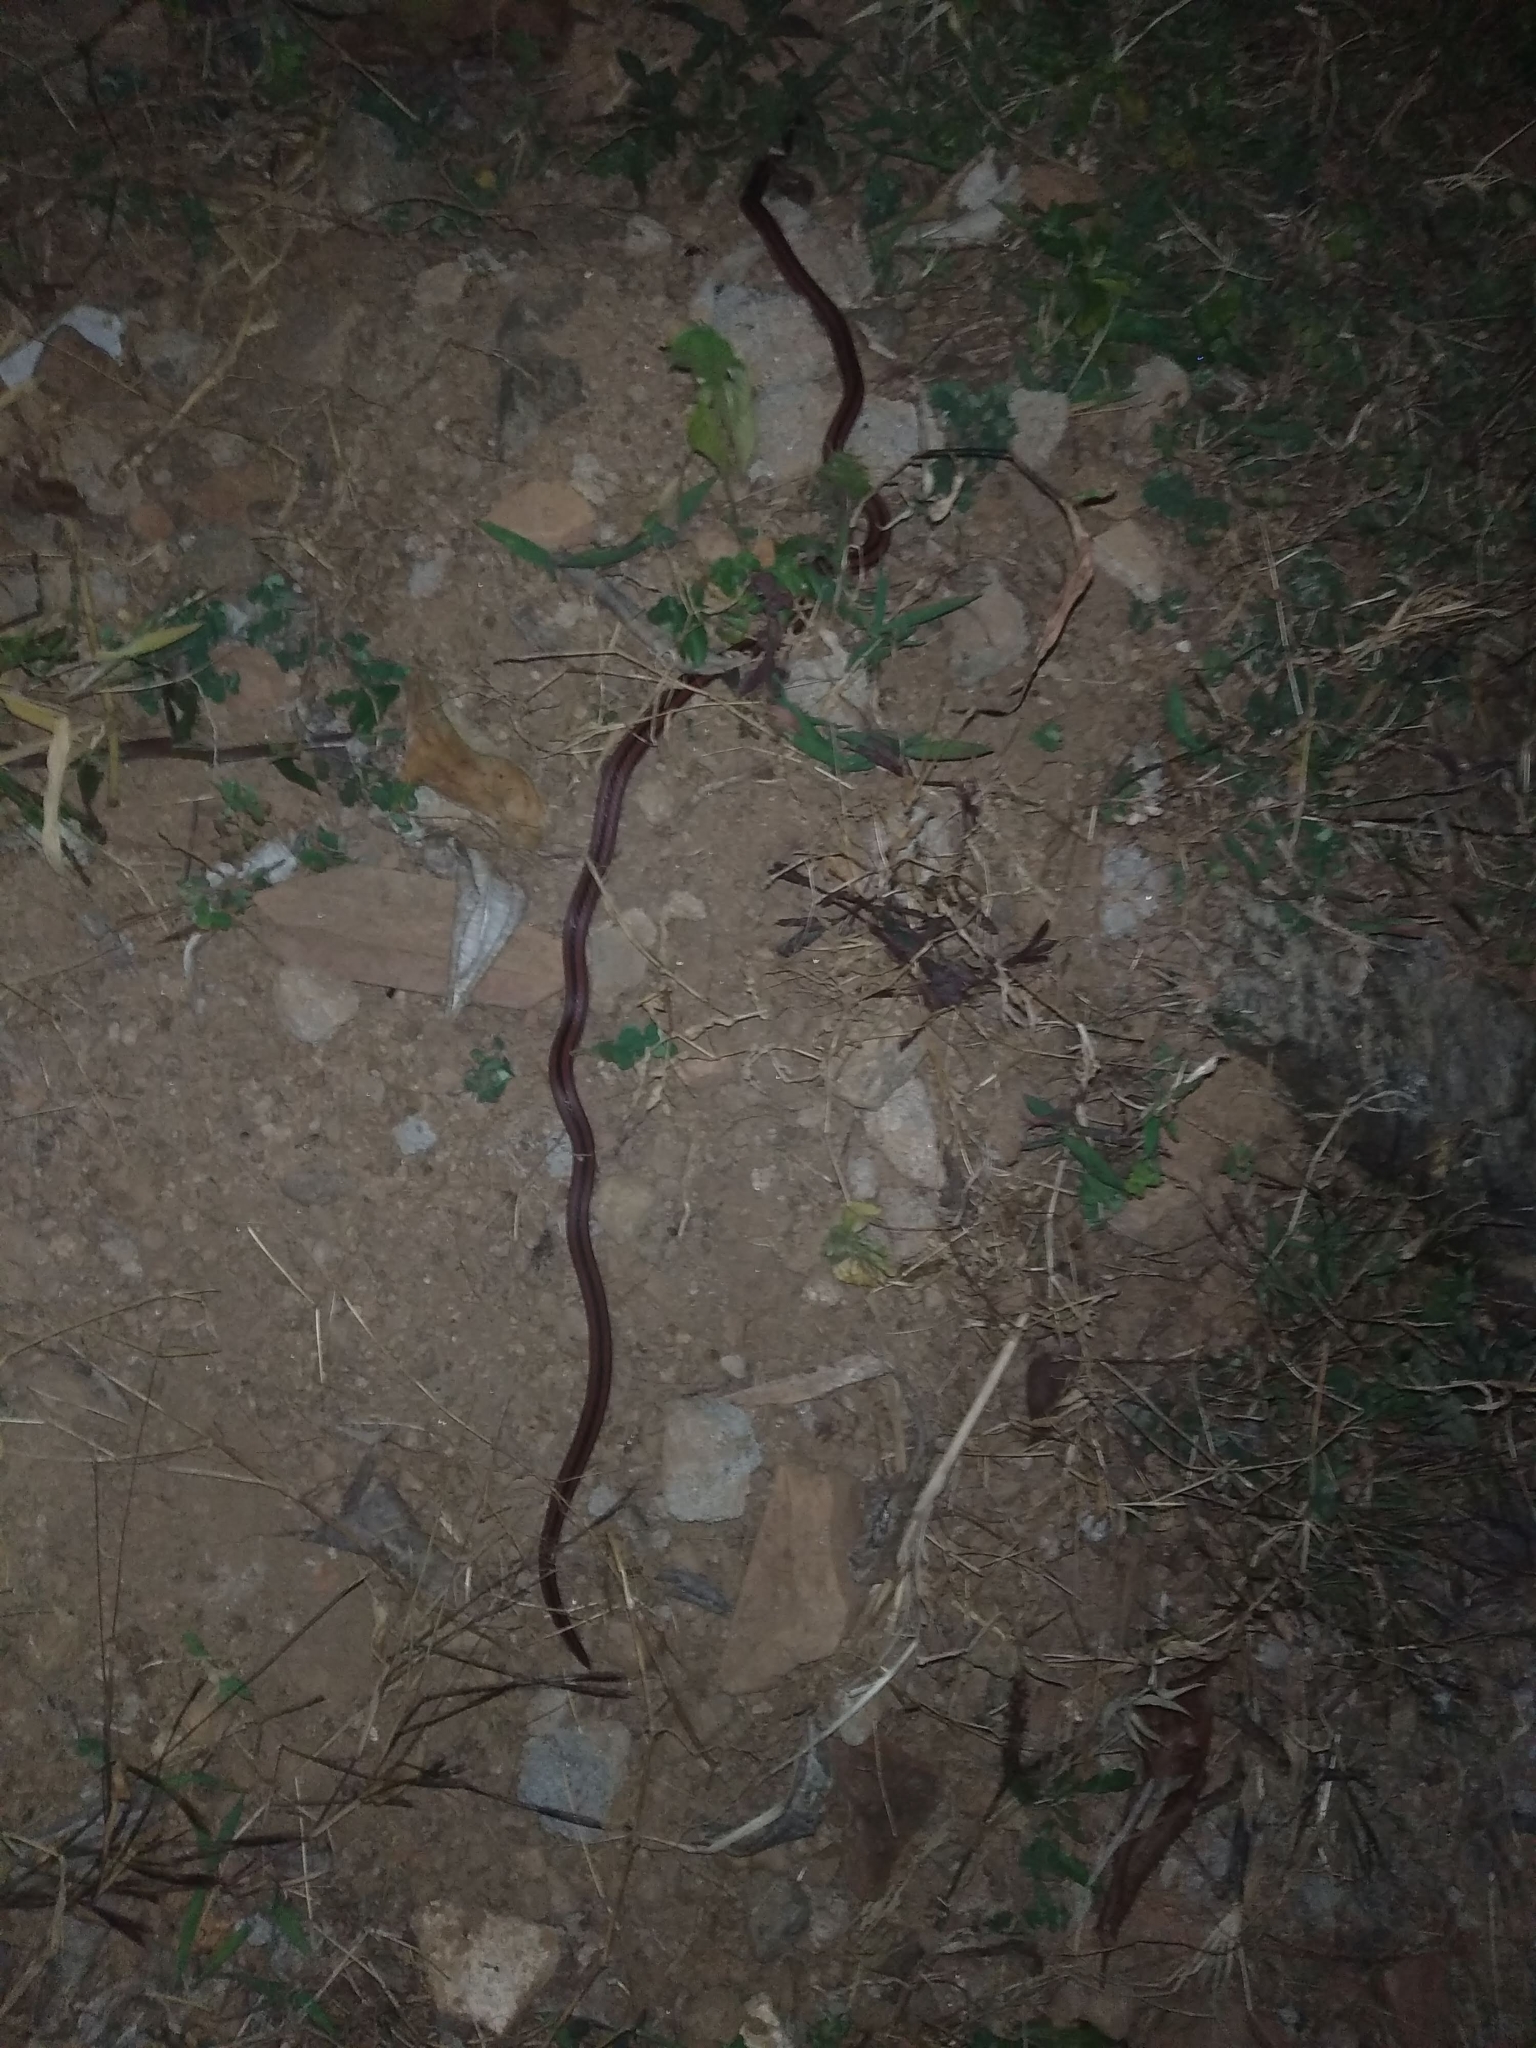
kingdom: Animalia
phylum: Chordata
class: Squamata
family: Elapidae
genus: Calliophis
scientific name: Calliophis nigrescens
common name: Black coral snake
